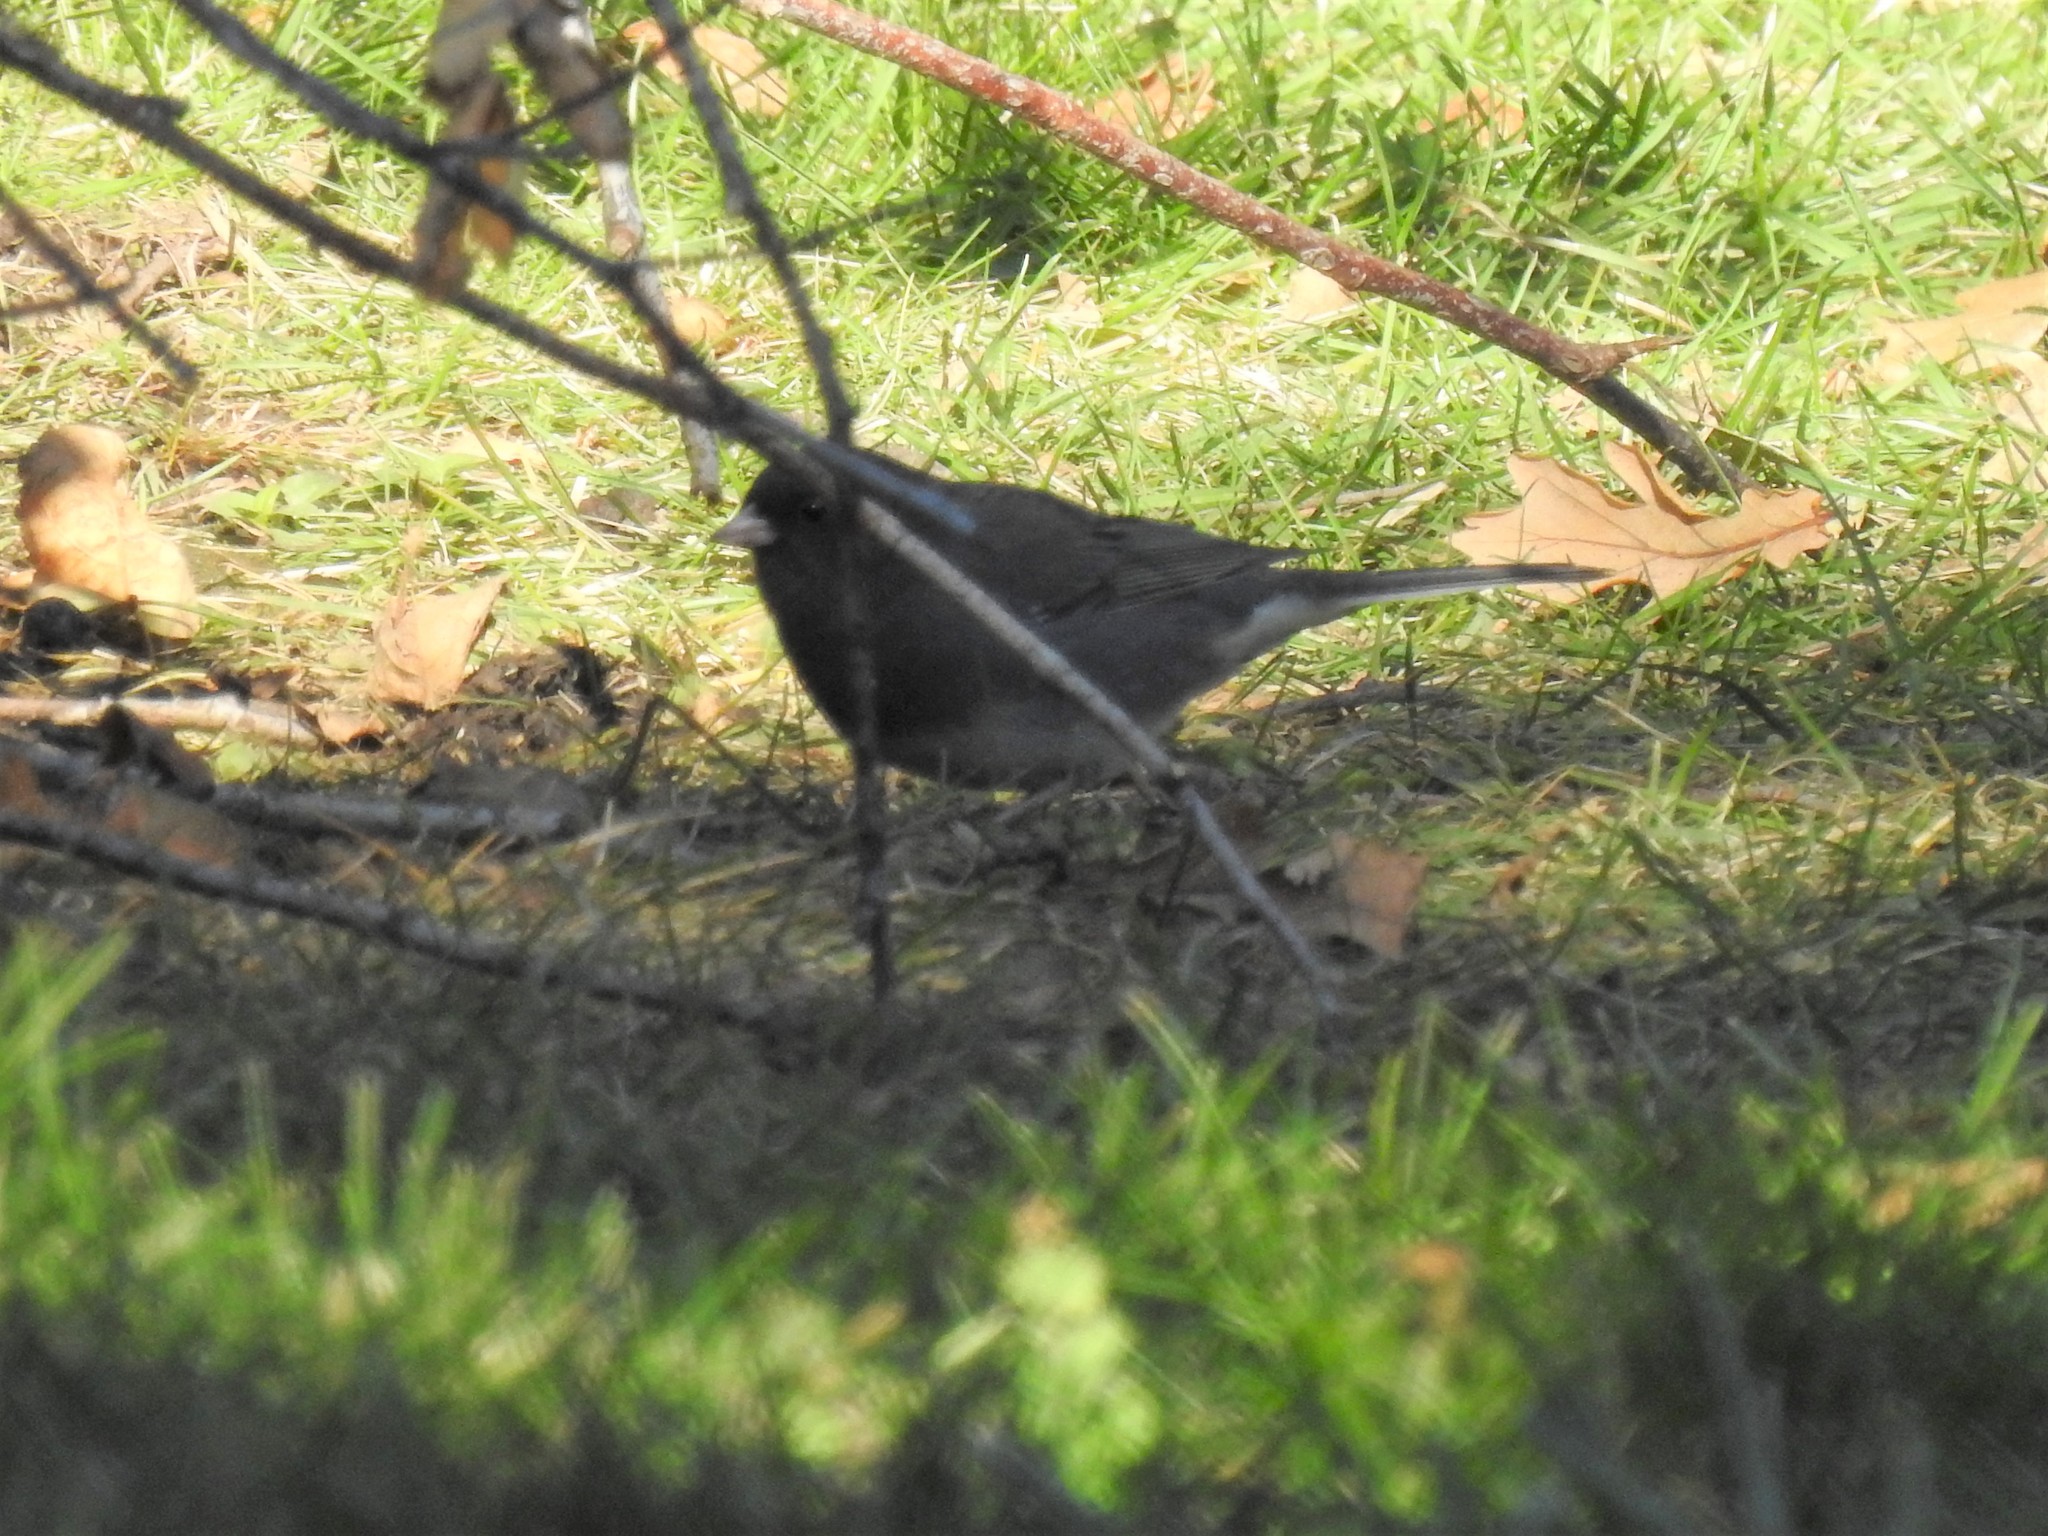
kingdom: Animalia
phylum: Chordata
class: Aves
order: Passeriformes
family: Passerellidae
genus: Junco
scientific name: Junco hyemalis
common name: Dark-eyed junco
